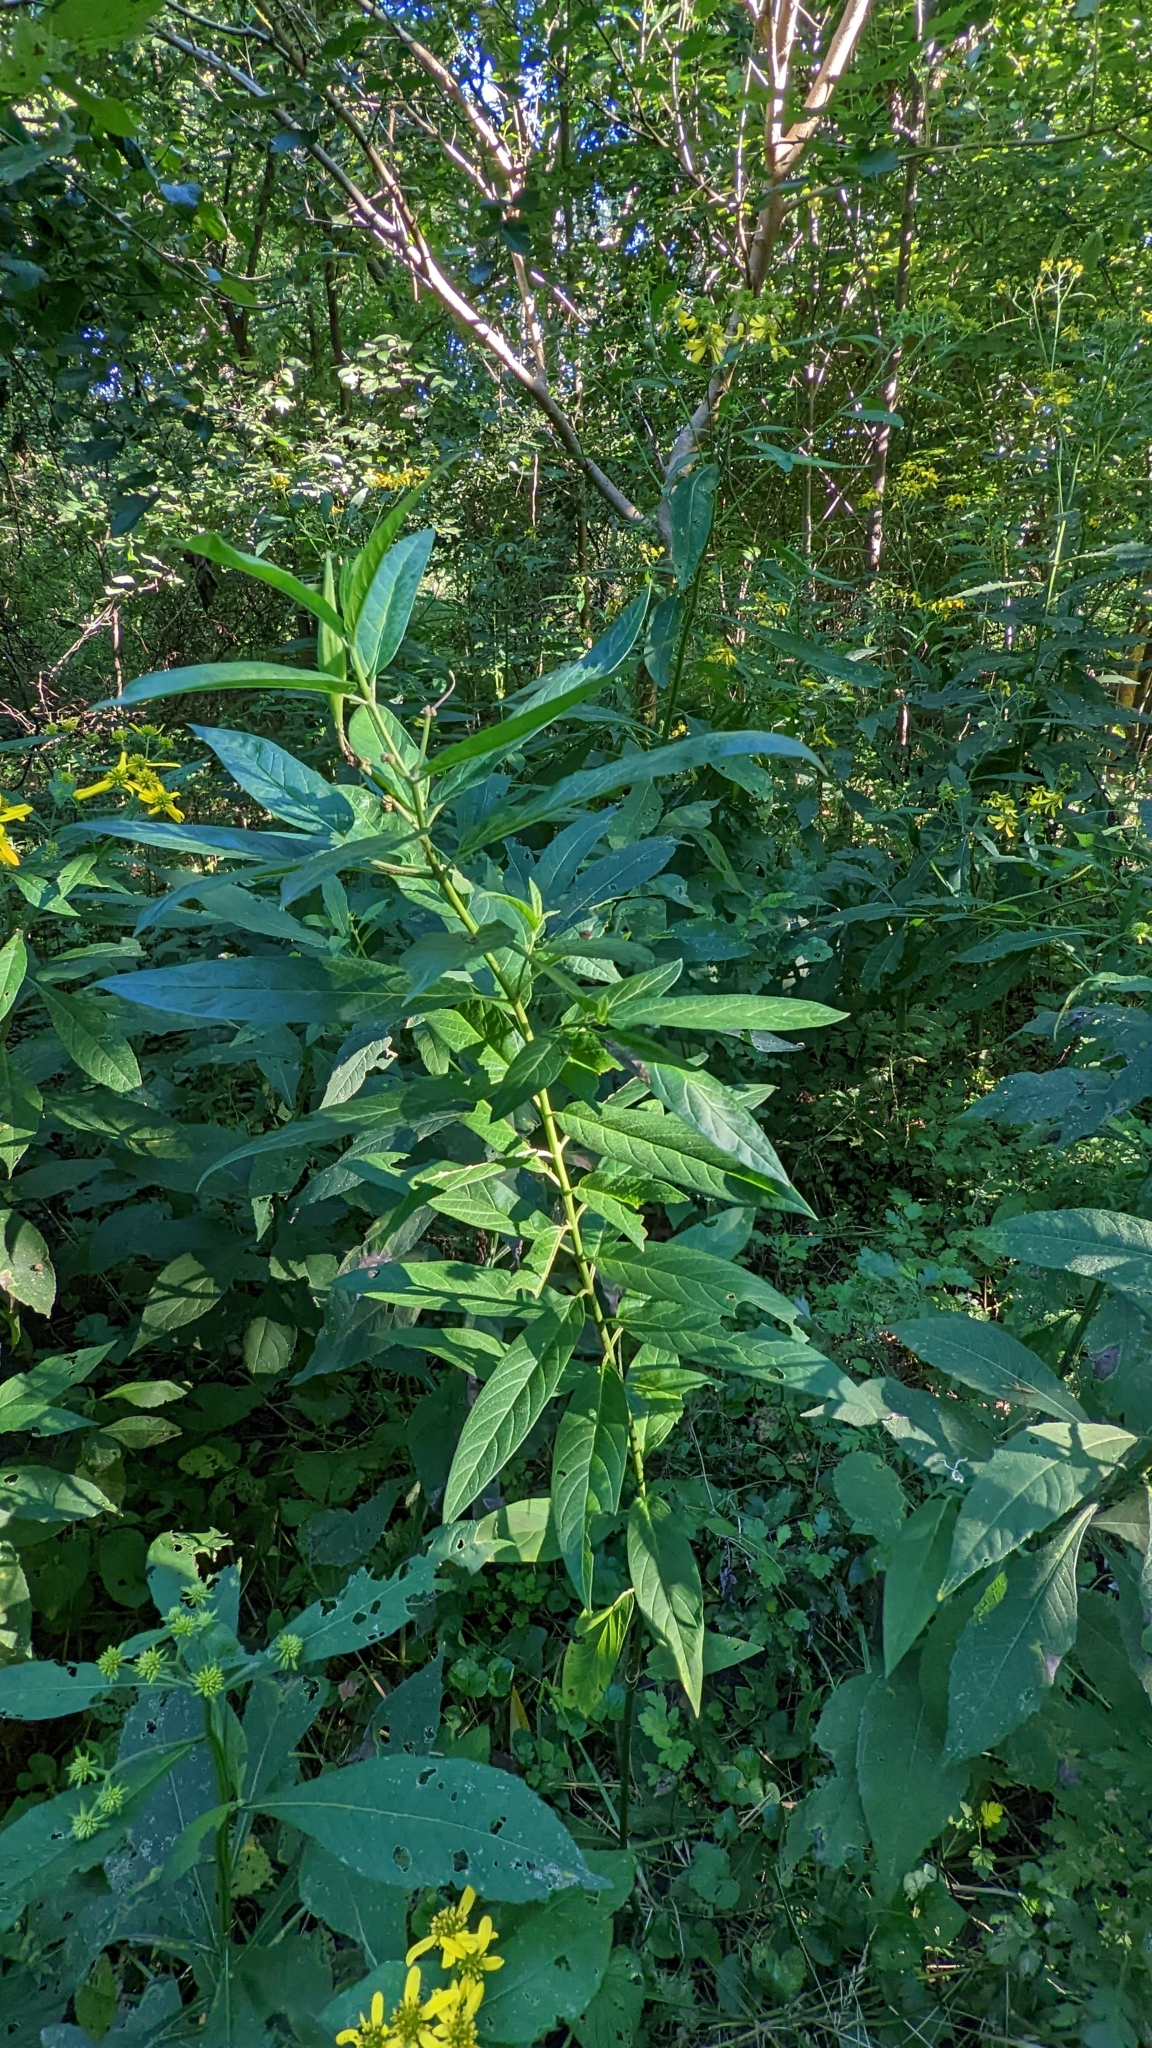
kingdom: Plantae
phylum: Tracheophyta
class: Magnoliopsida
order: Asterales
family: Asteraceae
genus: Verbesina
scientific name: Verbesina alternifolia
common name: Wingstem
